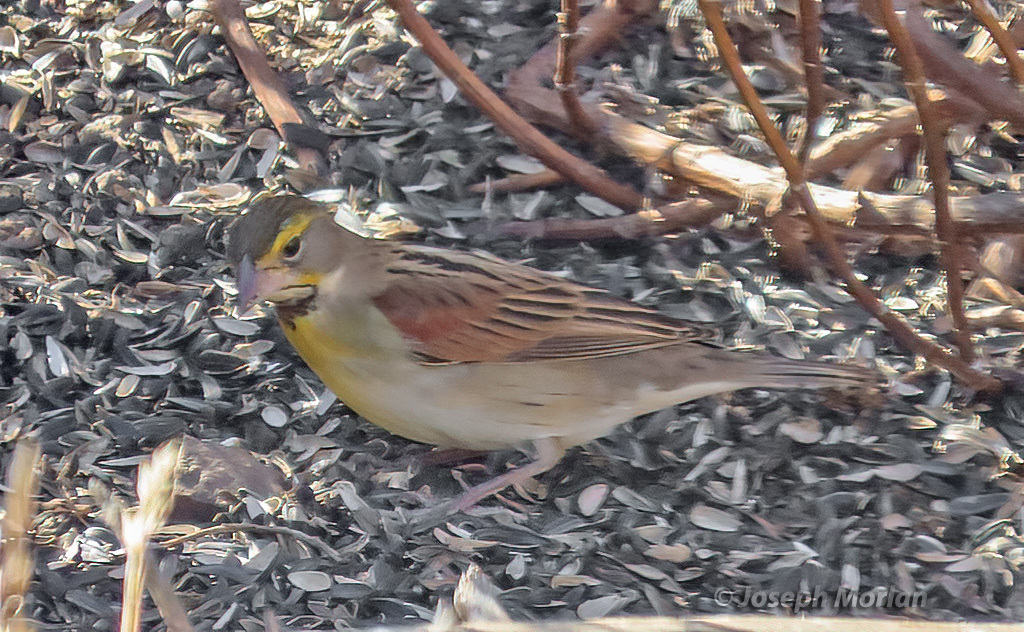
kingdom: Animalia
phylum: Chordata
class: Aves
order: Passeriformes
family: Cardinalidae
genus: Spiza
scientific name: Spiza americana
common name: Dickcissel
